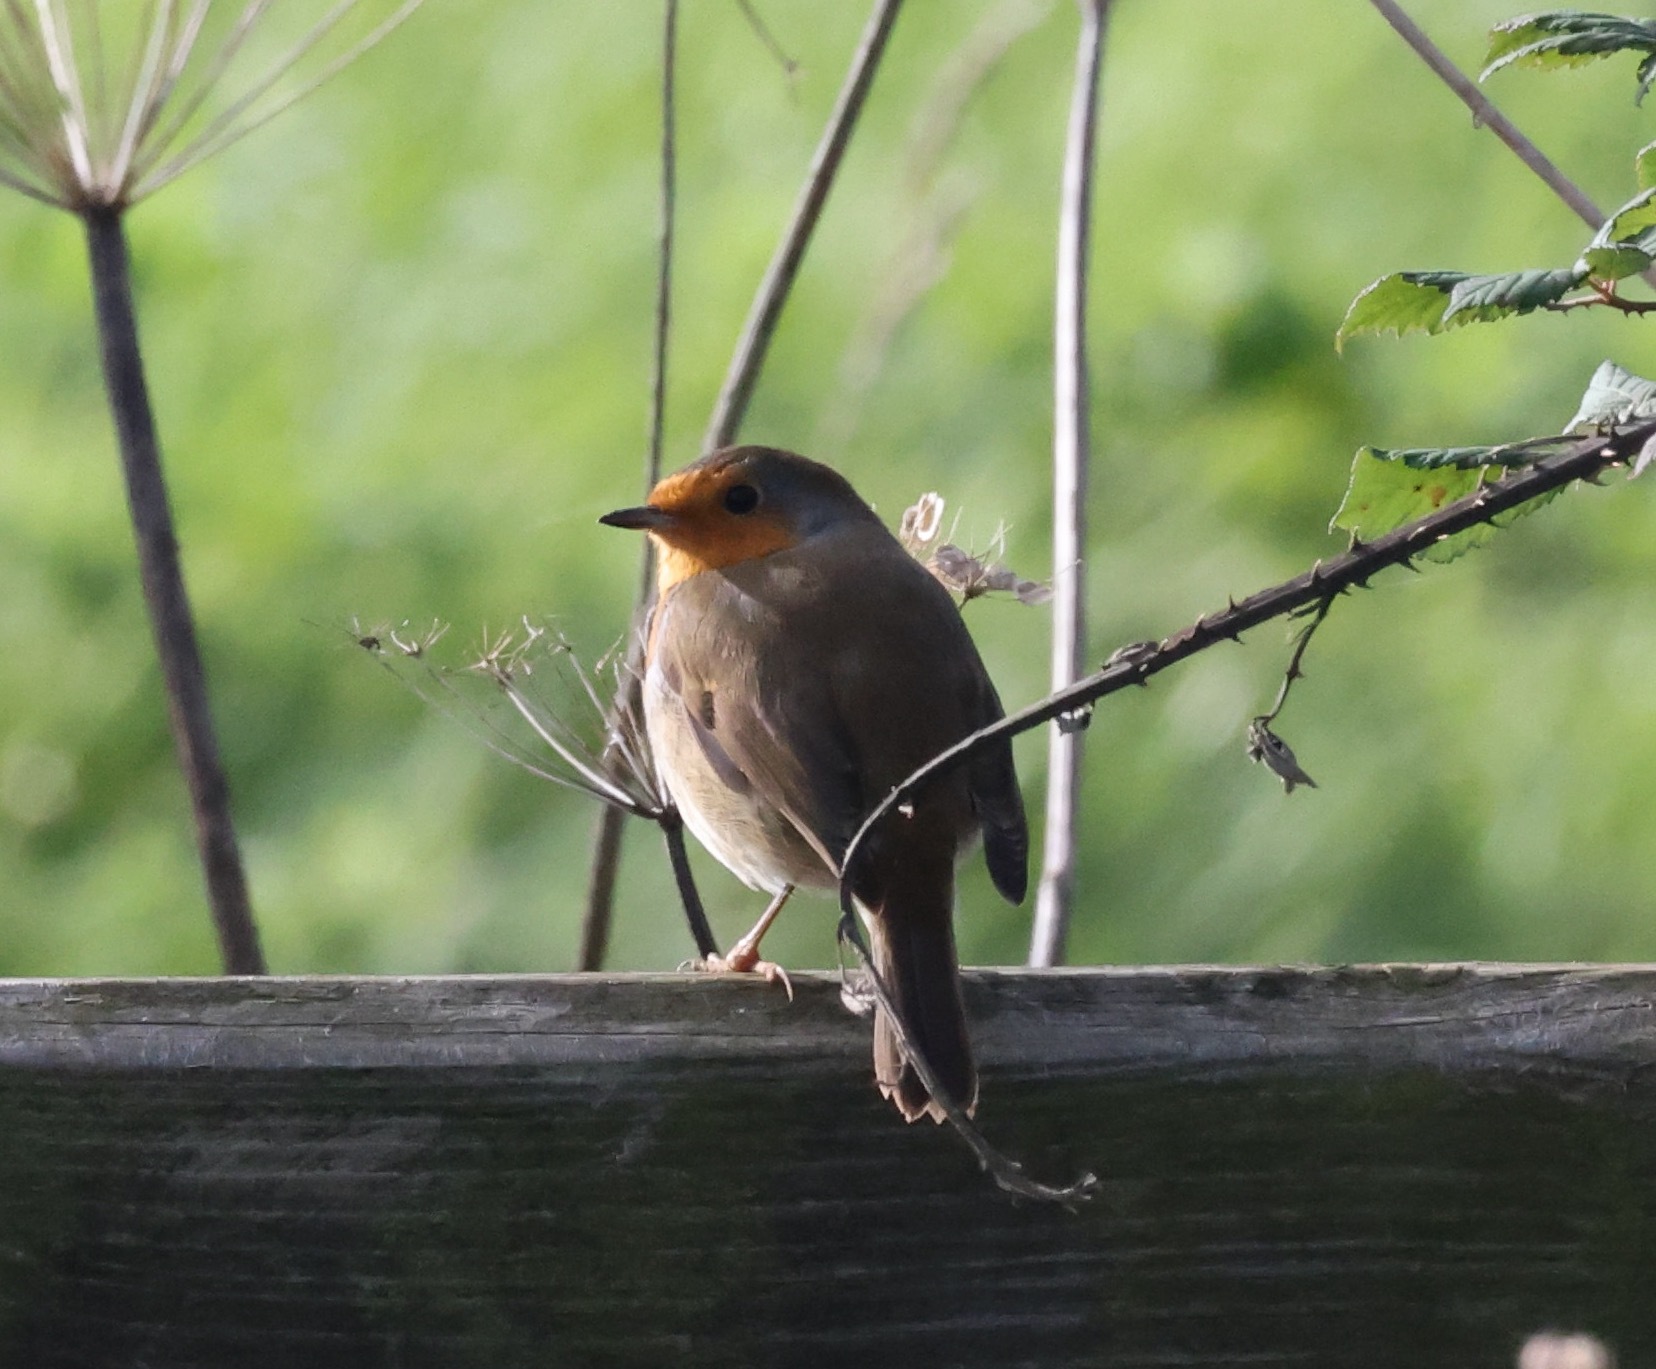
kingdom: Animalia
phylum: Chordata
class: Aves
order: Passeriformes
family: Muscicapidae
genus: Erithacus
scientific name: Erithacus rubecula
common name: European robin
